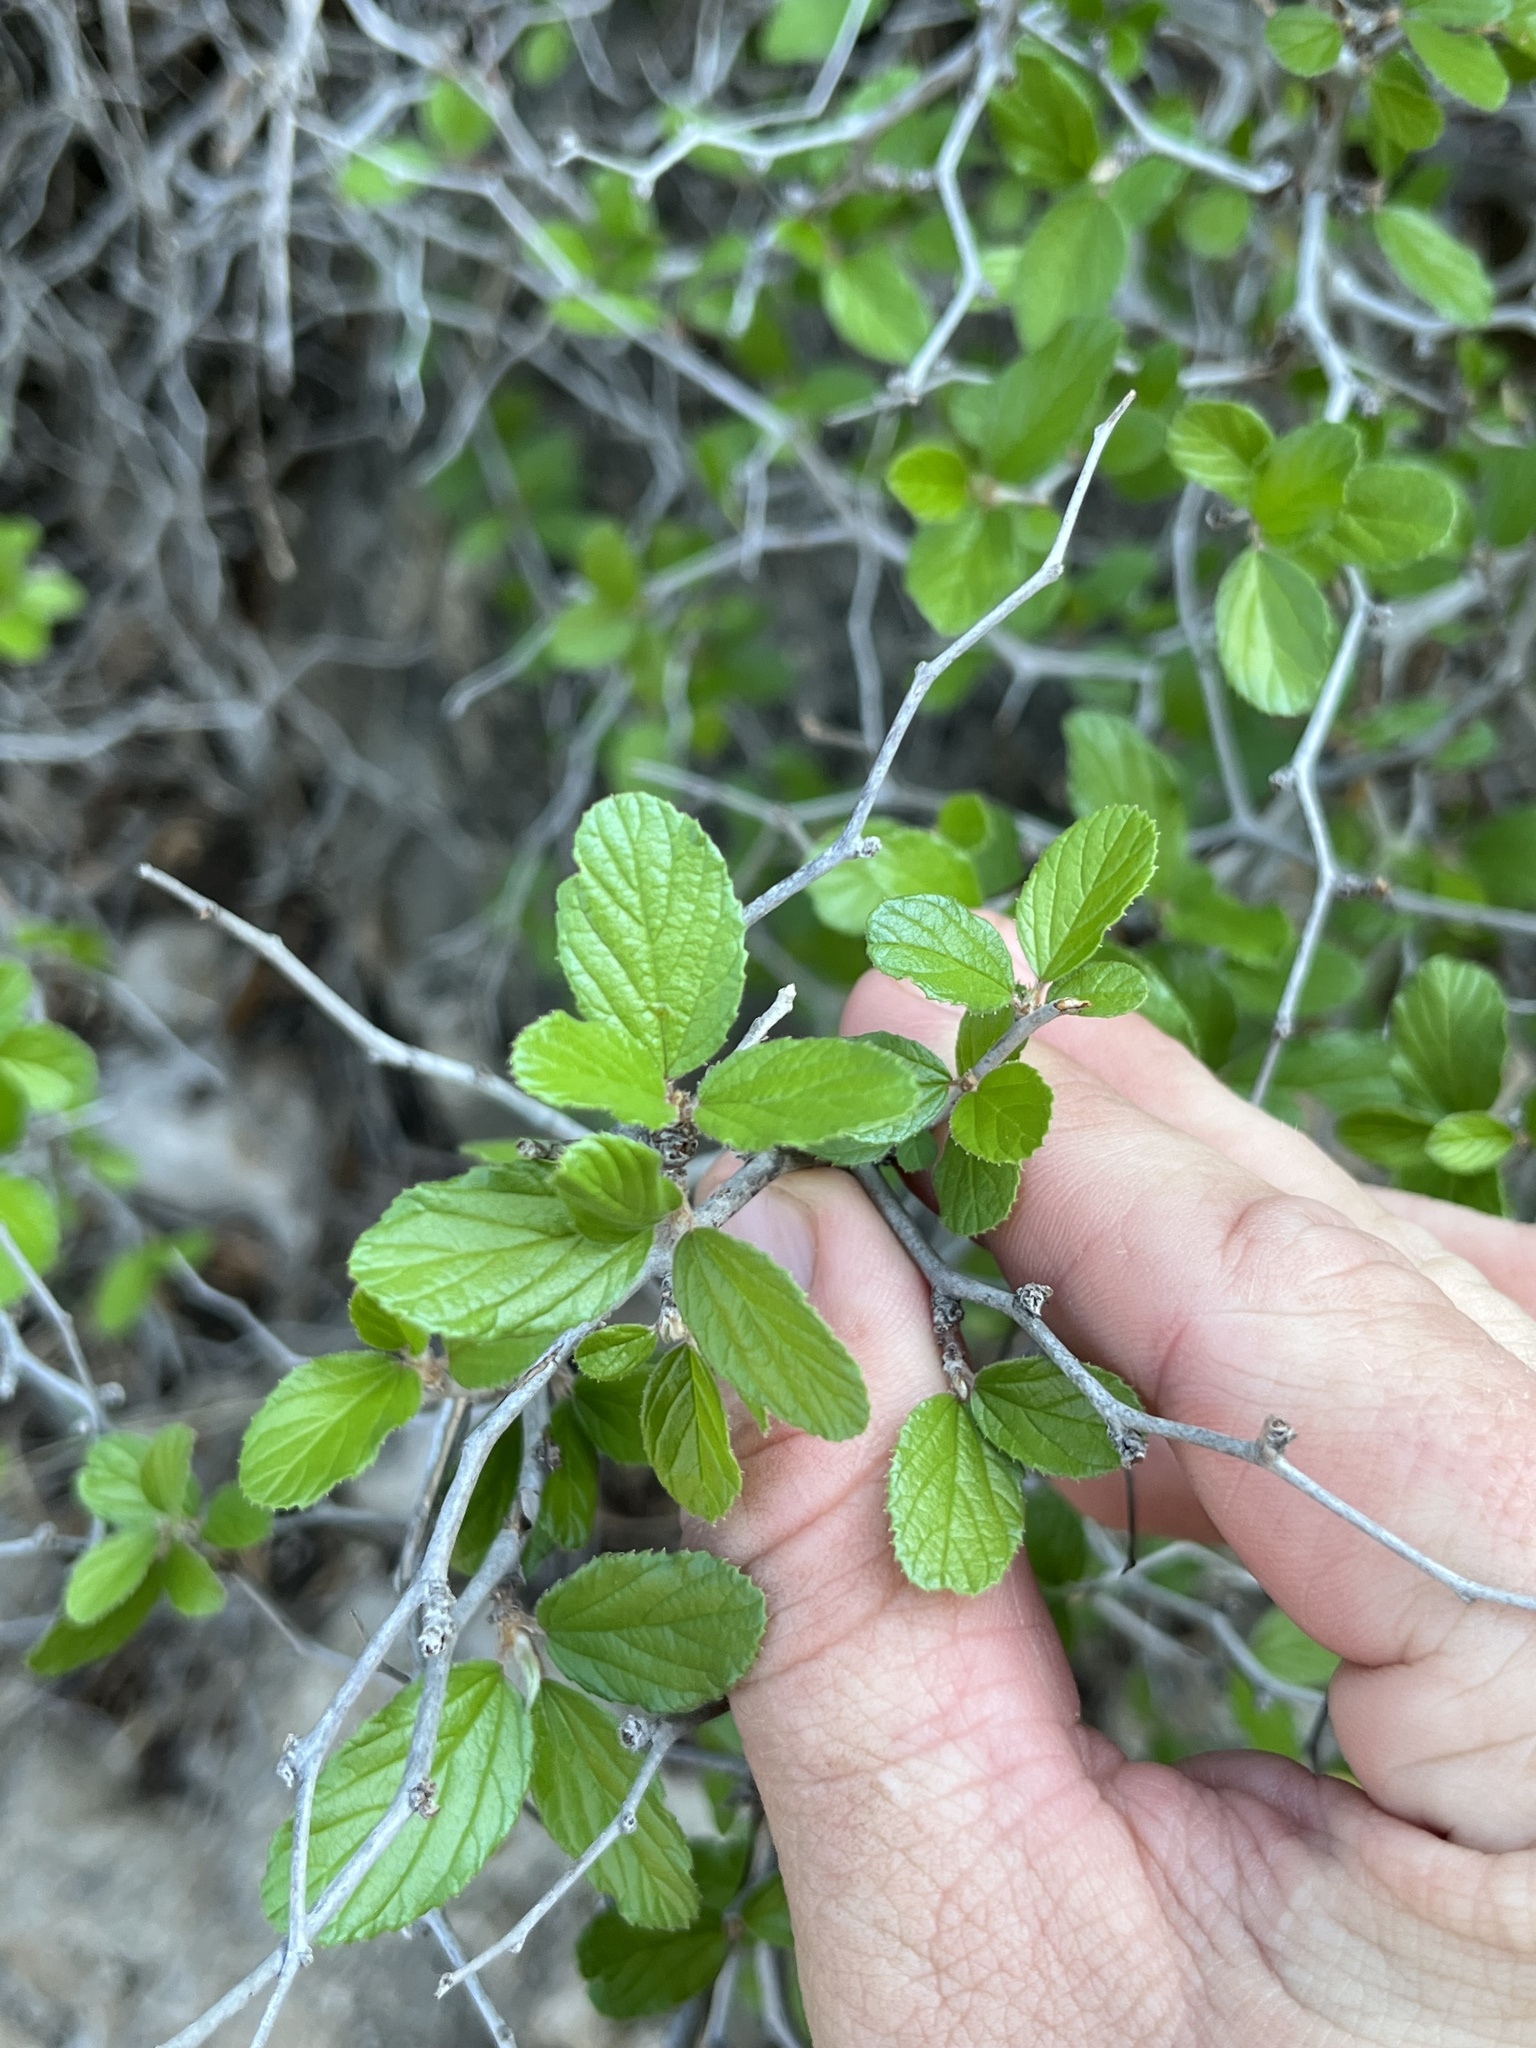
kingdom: Plantae
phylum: Tracheophyta
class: Magnoliopsida
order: Rosales
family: Rhamnaceae
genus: Colubrina
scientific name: Colubrina texensis
